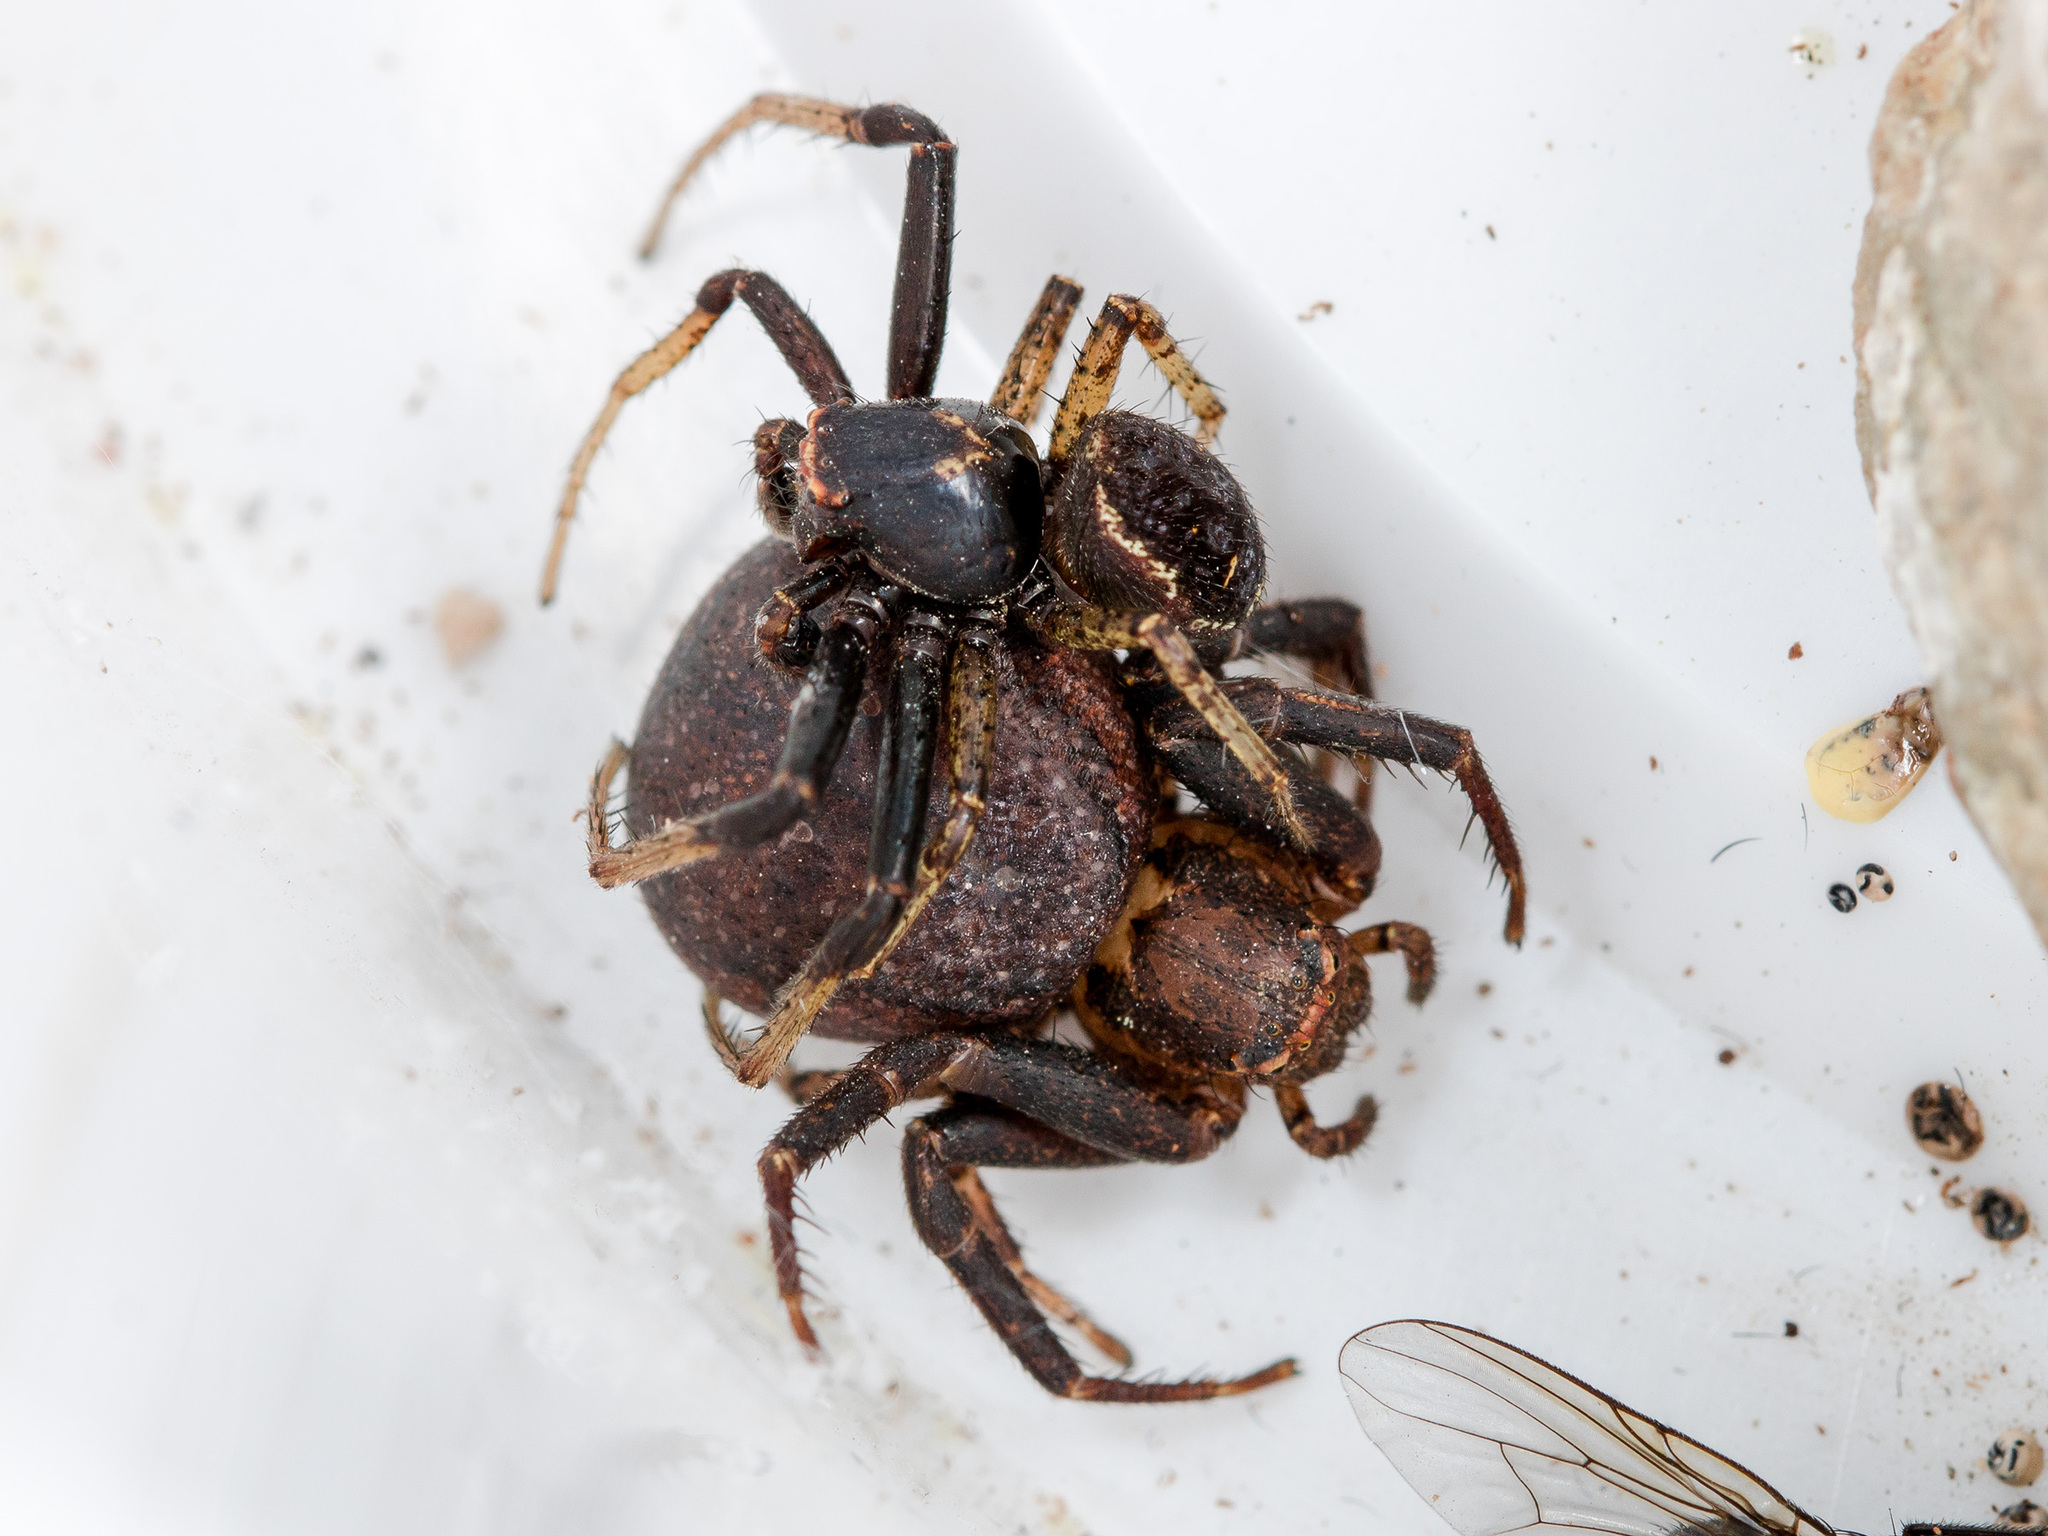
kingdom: Animalia
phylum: Arthropoda
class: Arachnida
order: Araneae
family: Thomisidae
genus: Xysticus
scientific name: Xysticus ephippiatus
